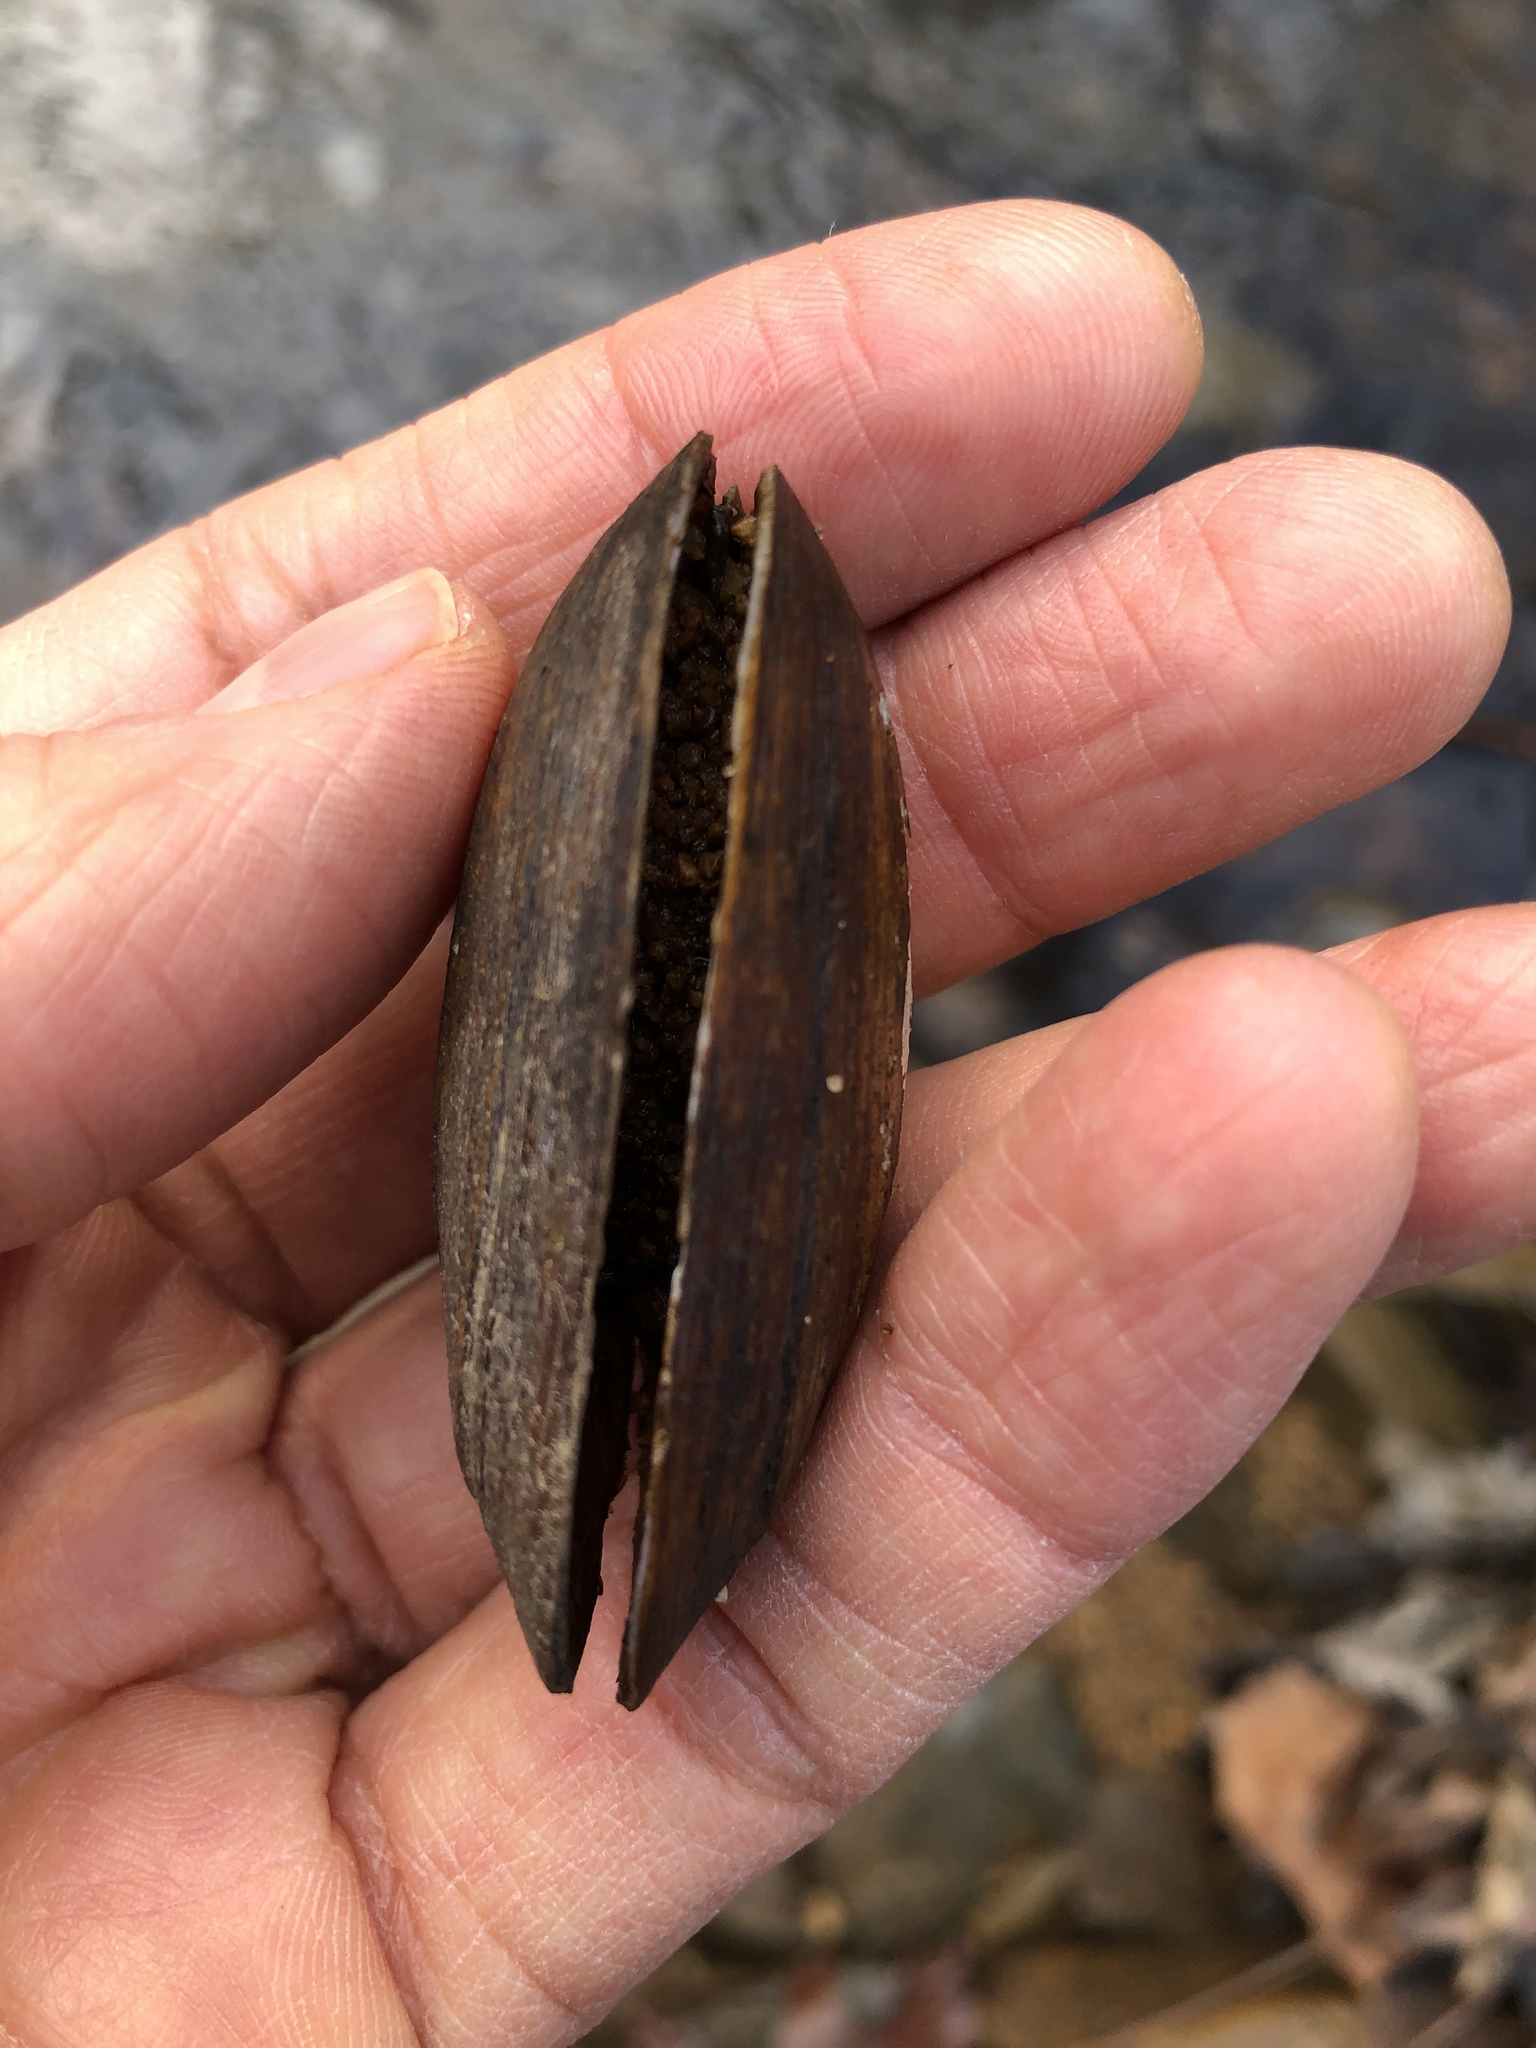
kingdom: Animalia
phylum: Mollusca
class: Bivalvia
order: Unionida
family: Unionidae
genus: Elliptio
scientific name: Elliptio complanata
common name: Eastern elliptio
